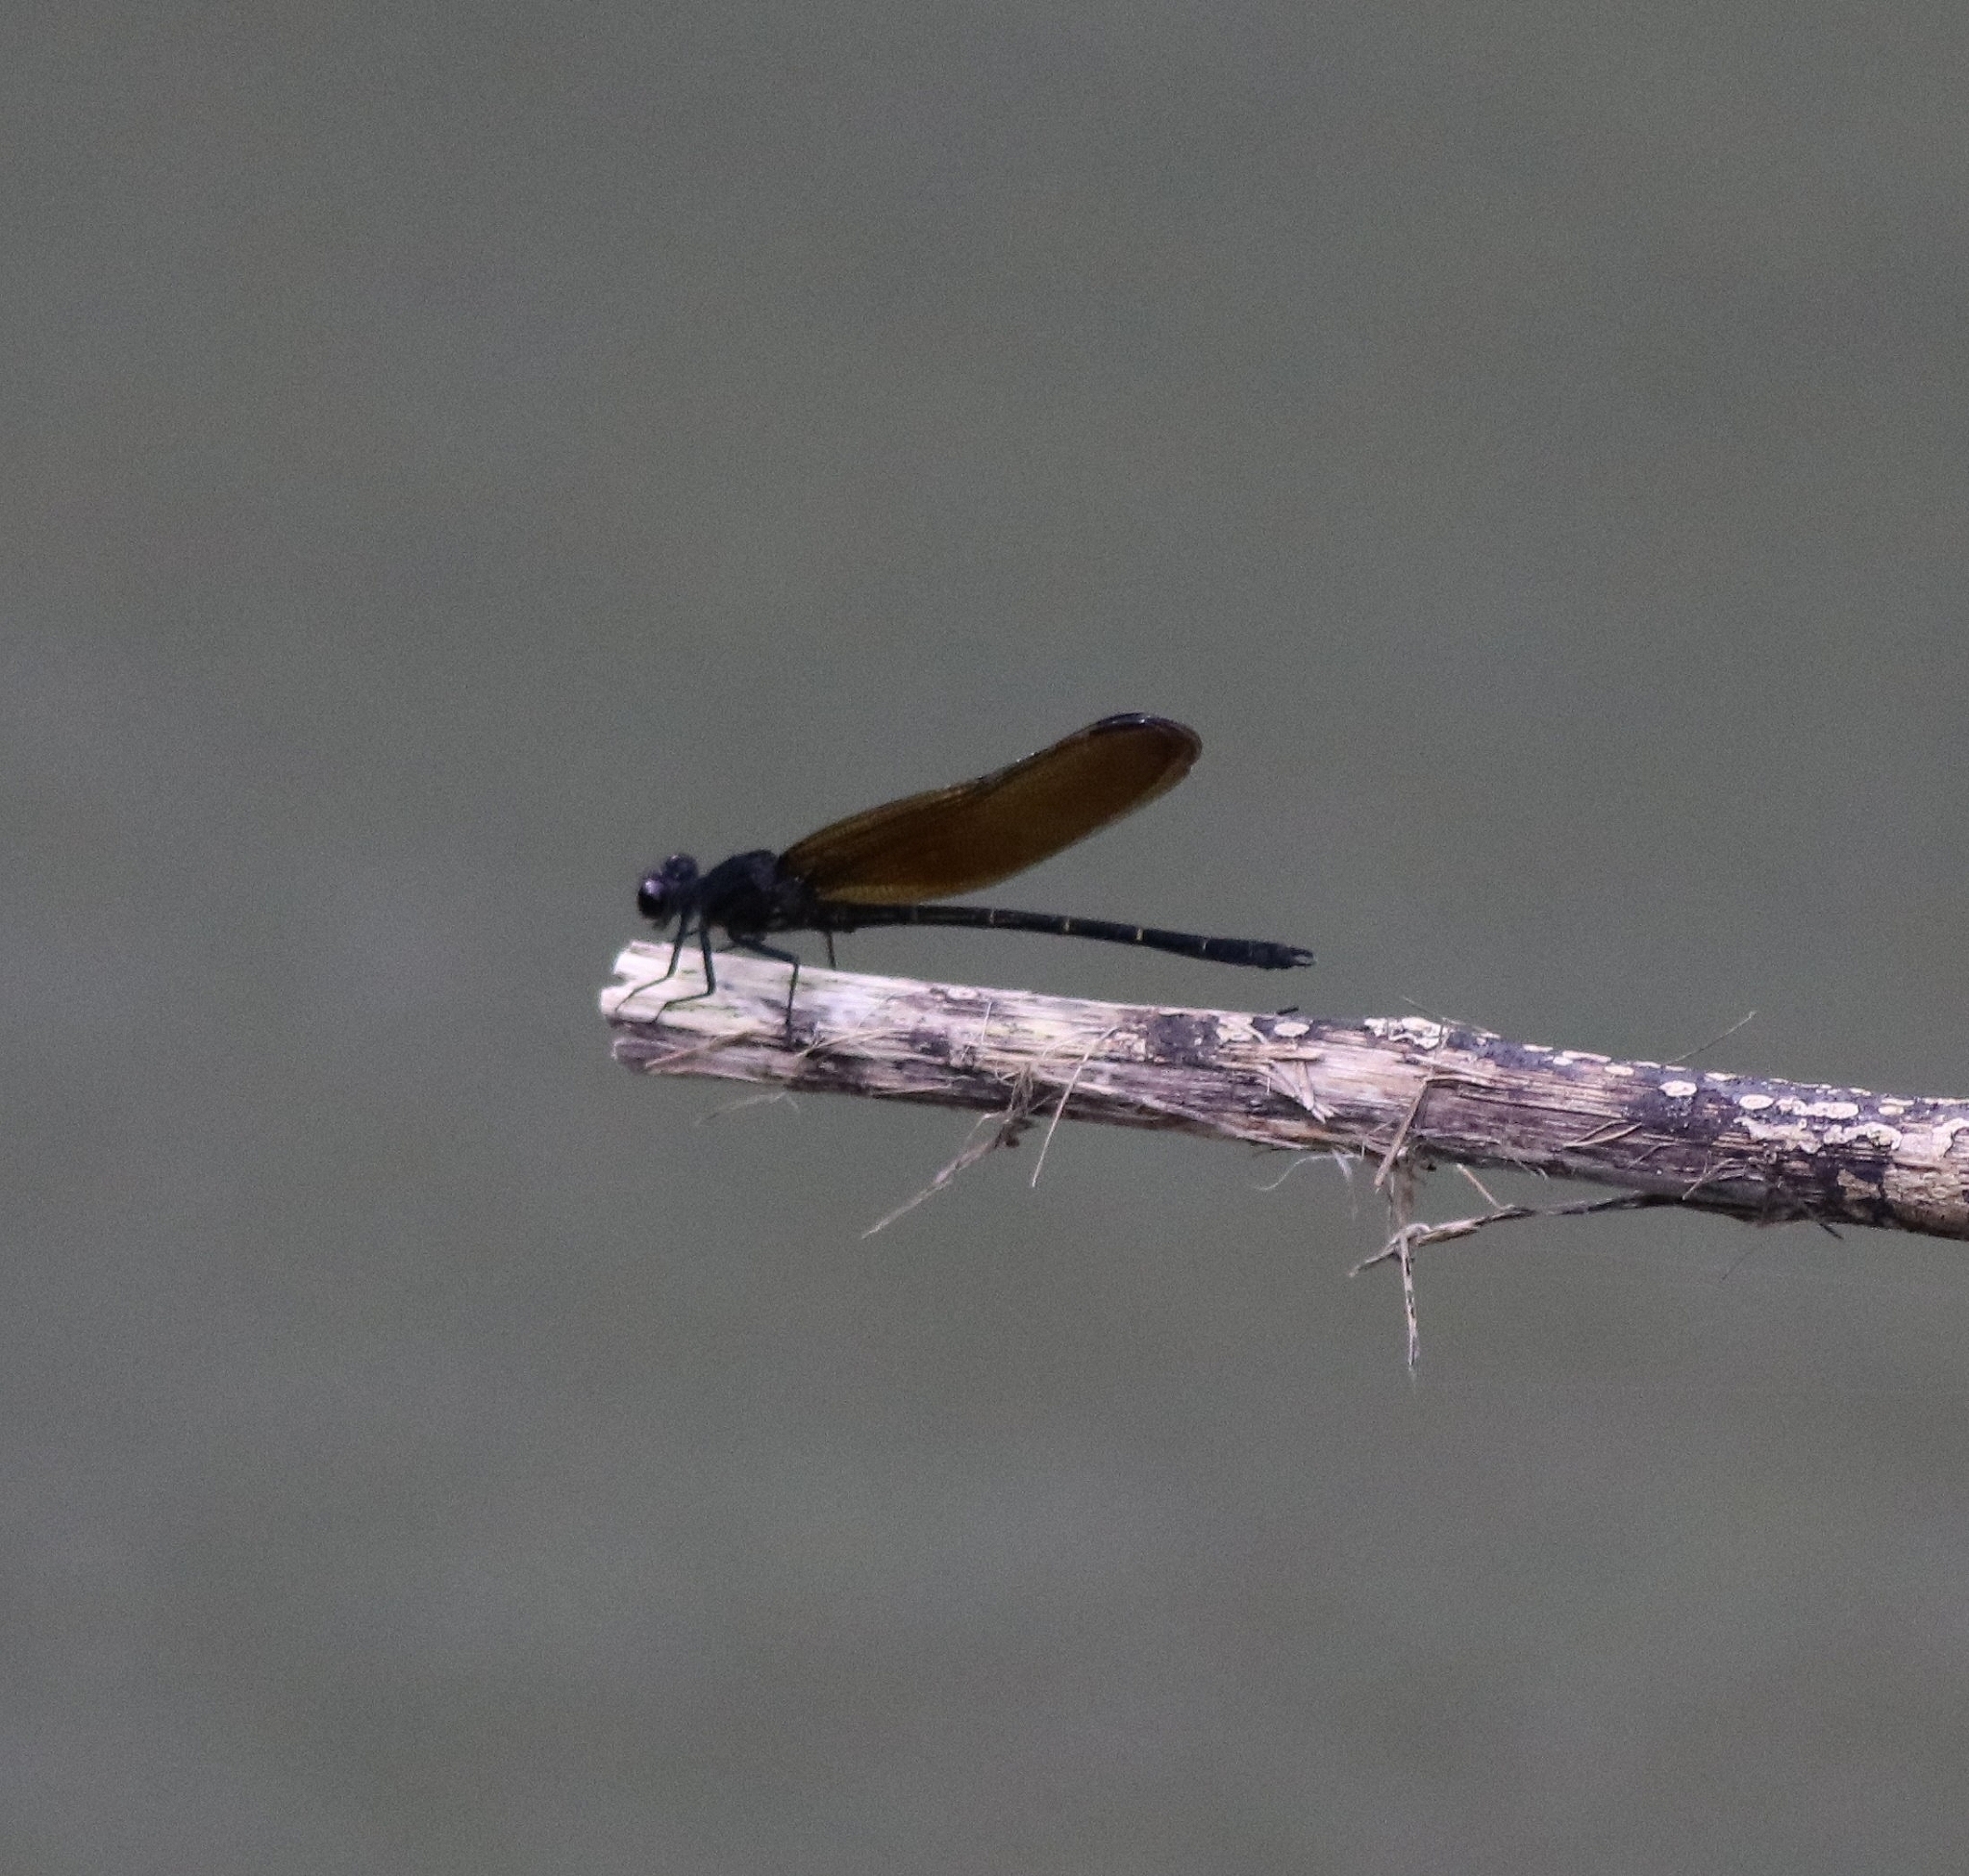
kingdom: Animalia
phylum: Arthropoda
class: Insecta
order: Odonata
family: Euphaeidae
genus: Dysphaea
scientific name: Dysphaea ethela
